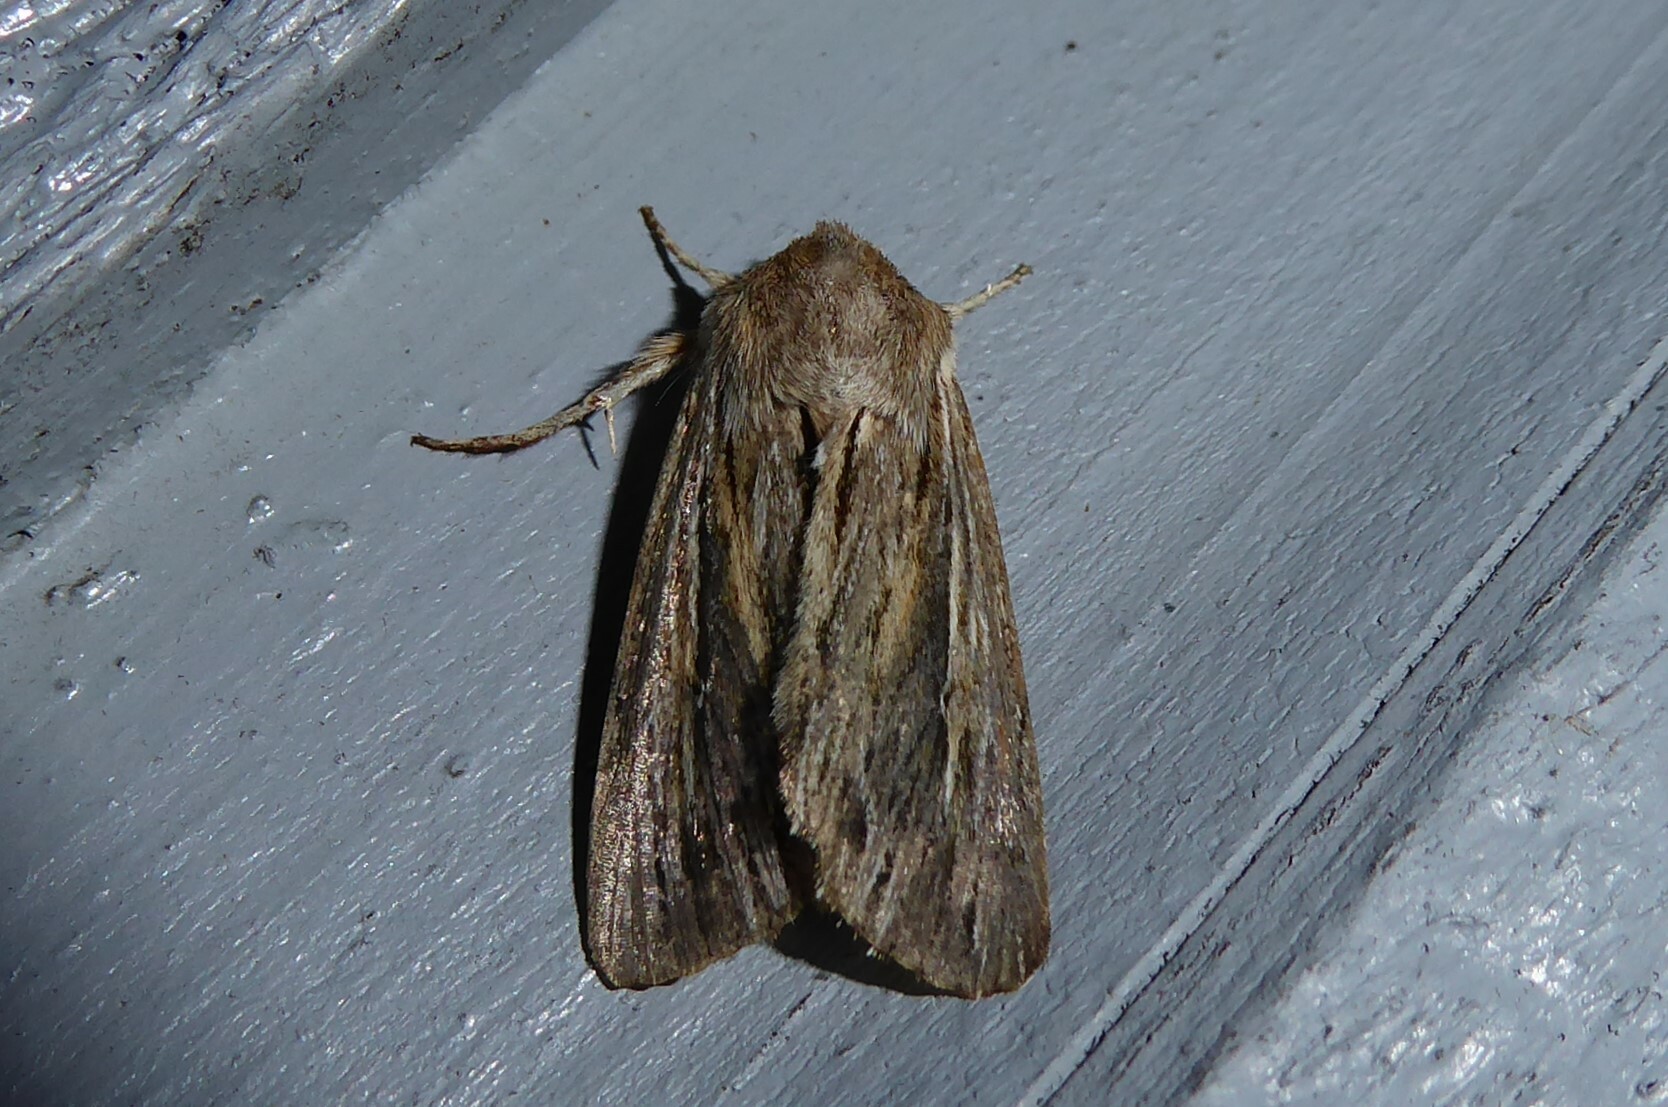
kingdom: Animalia
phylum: Arthropoda
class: Insecta
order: Lepidoptera
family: Noctuidae
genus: Persectania
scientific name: Persectania aversa
